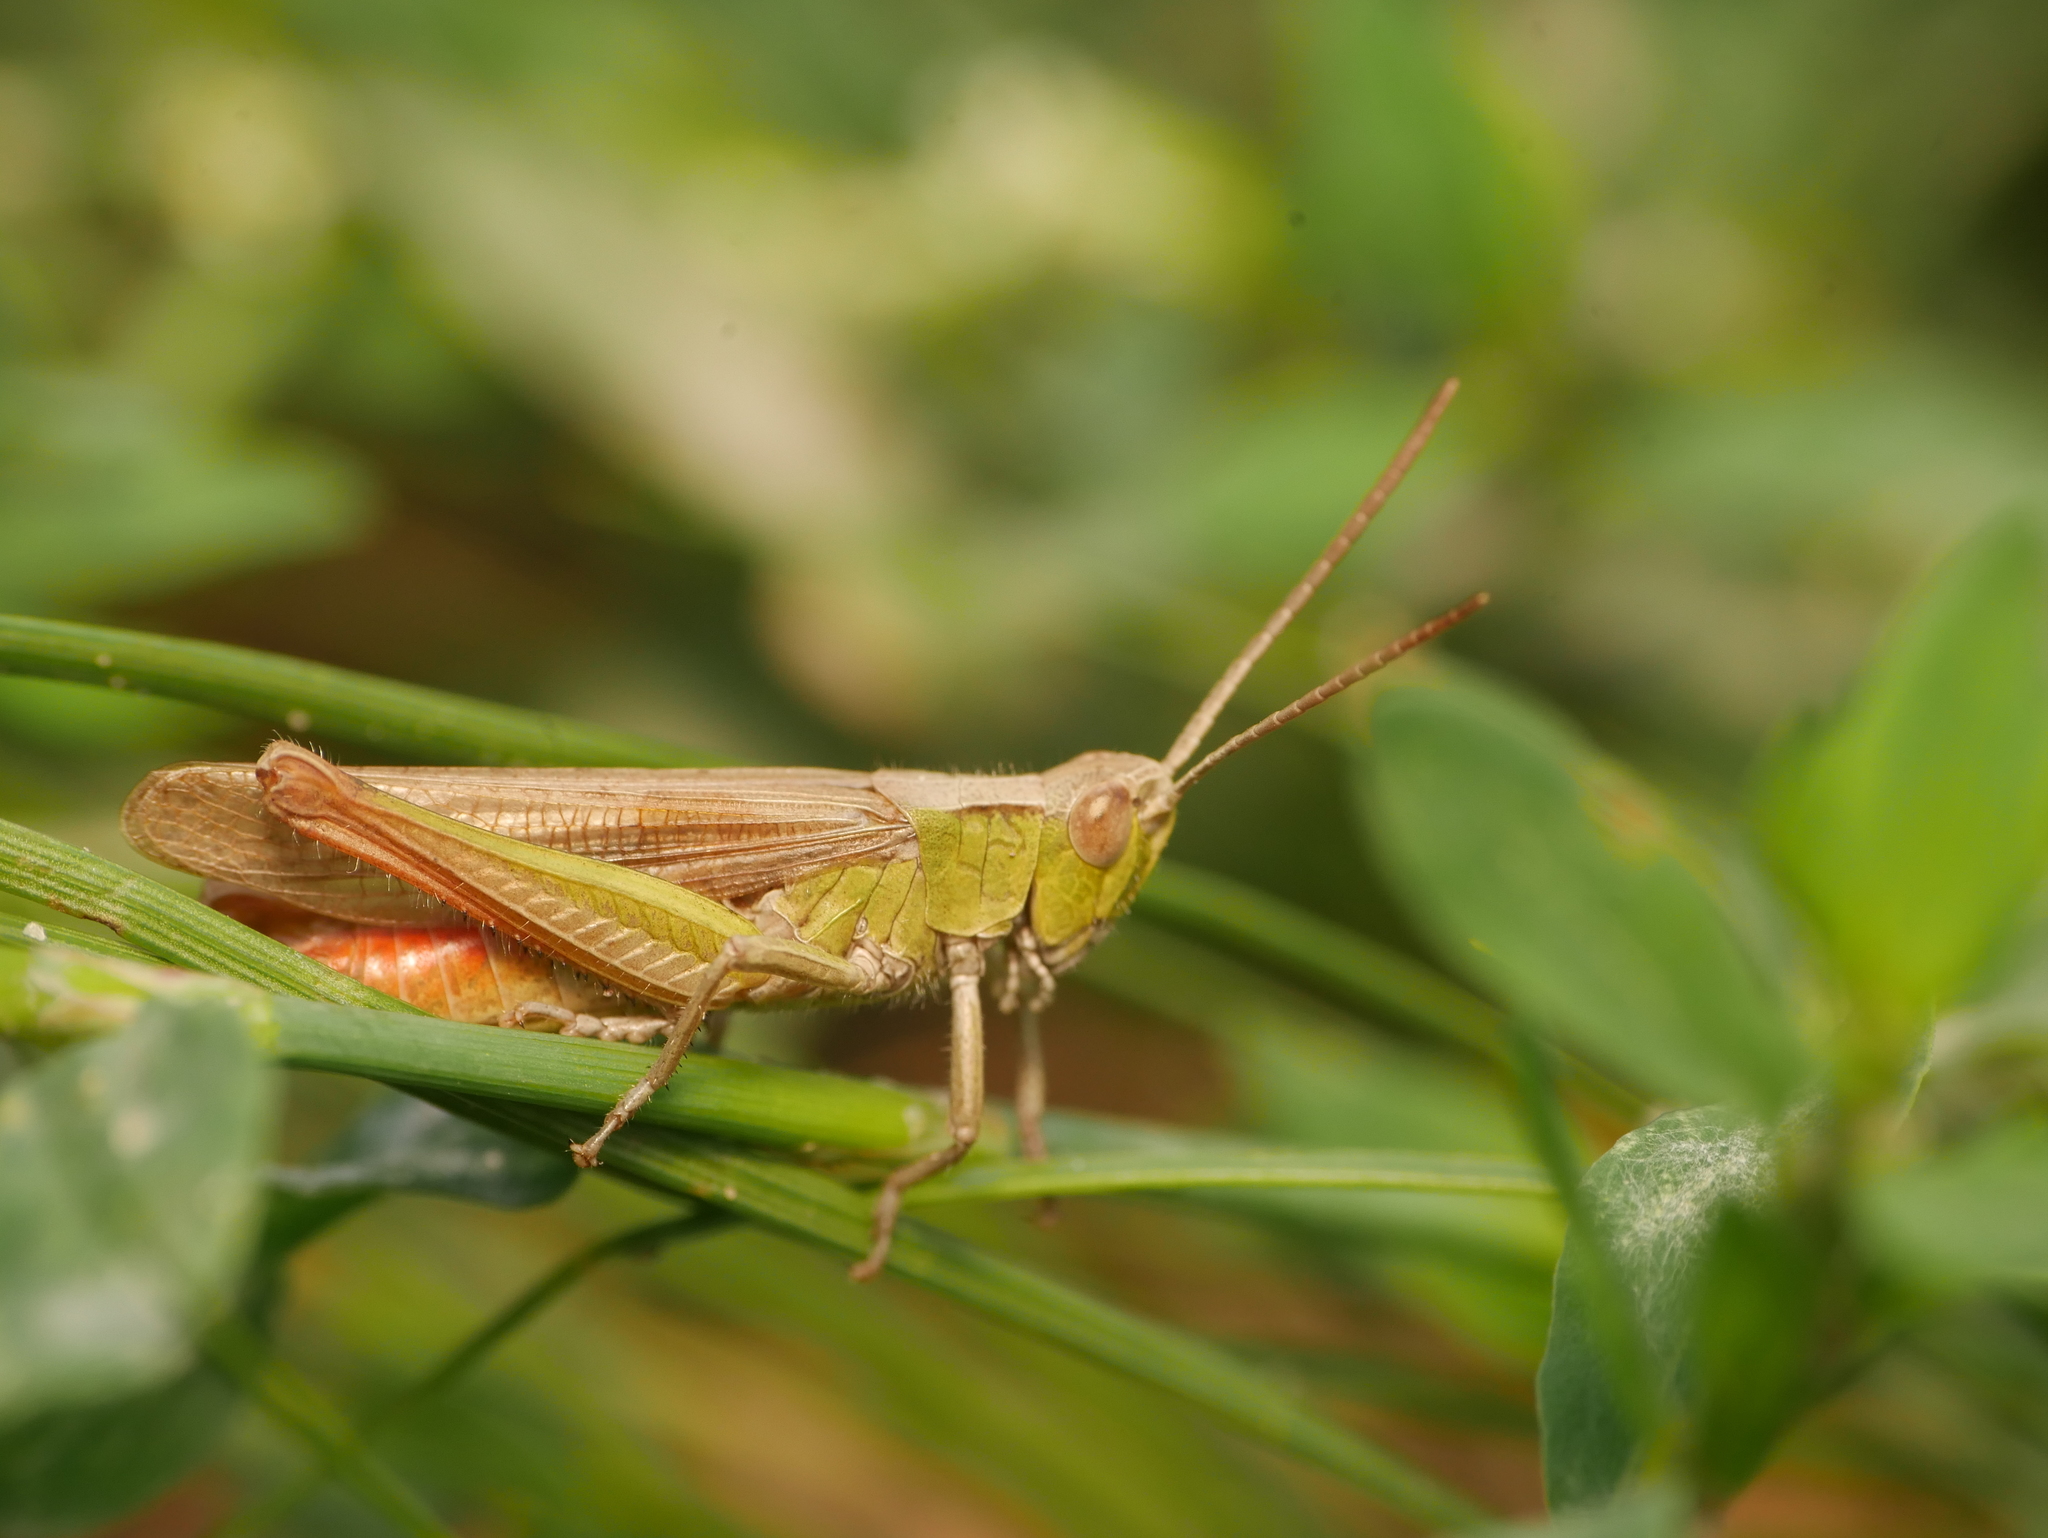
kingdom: Animalia
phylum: Arthropoda
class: Insecta
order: Orthoptera
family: Acrididae
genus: Chorthippus
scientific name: Chorthippus dorsatus
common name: Steppe grasshopper
